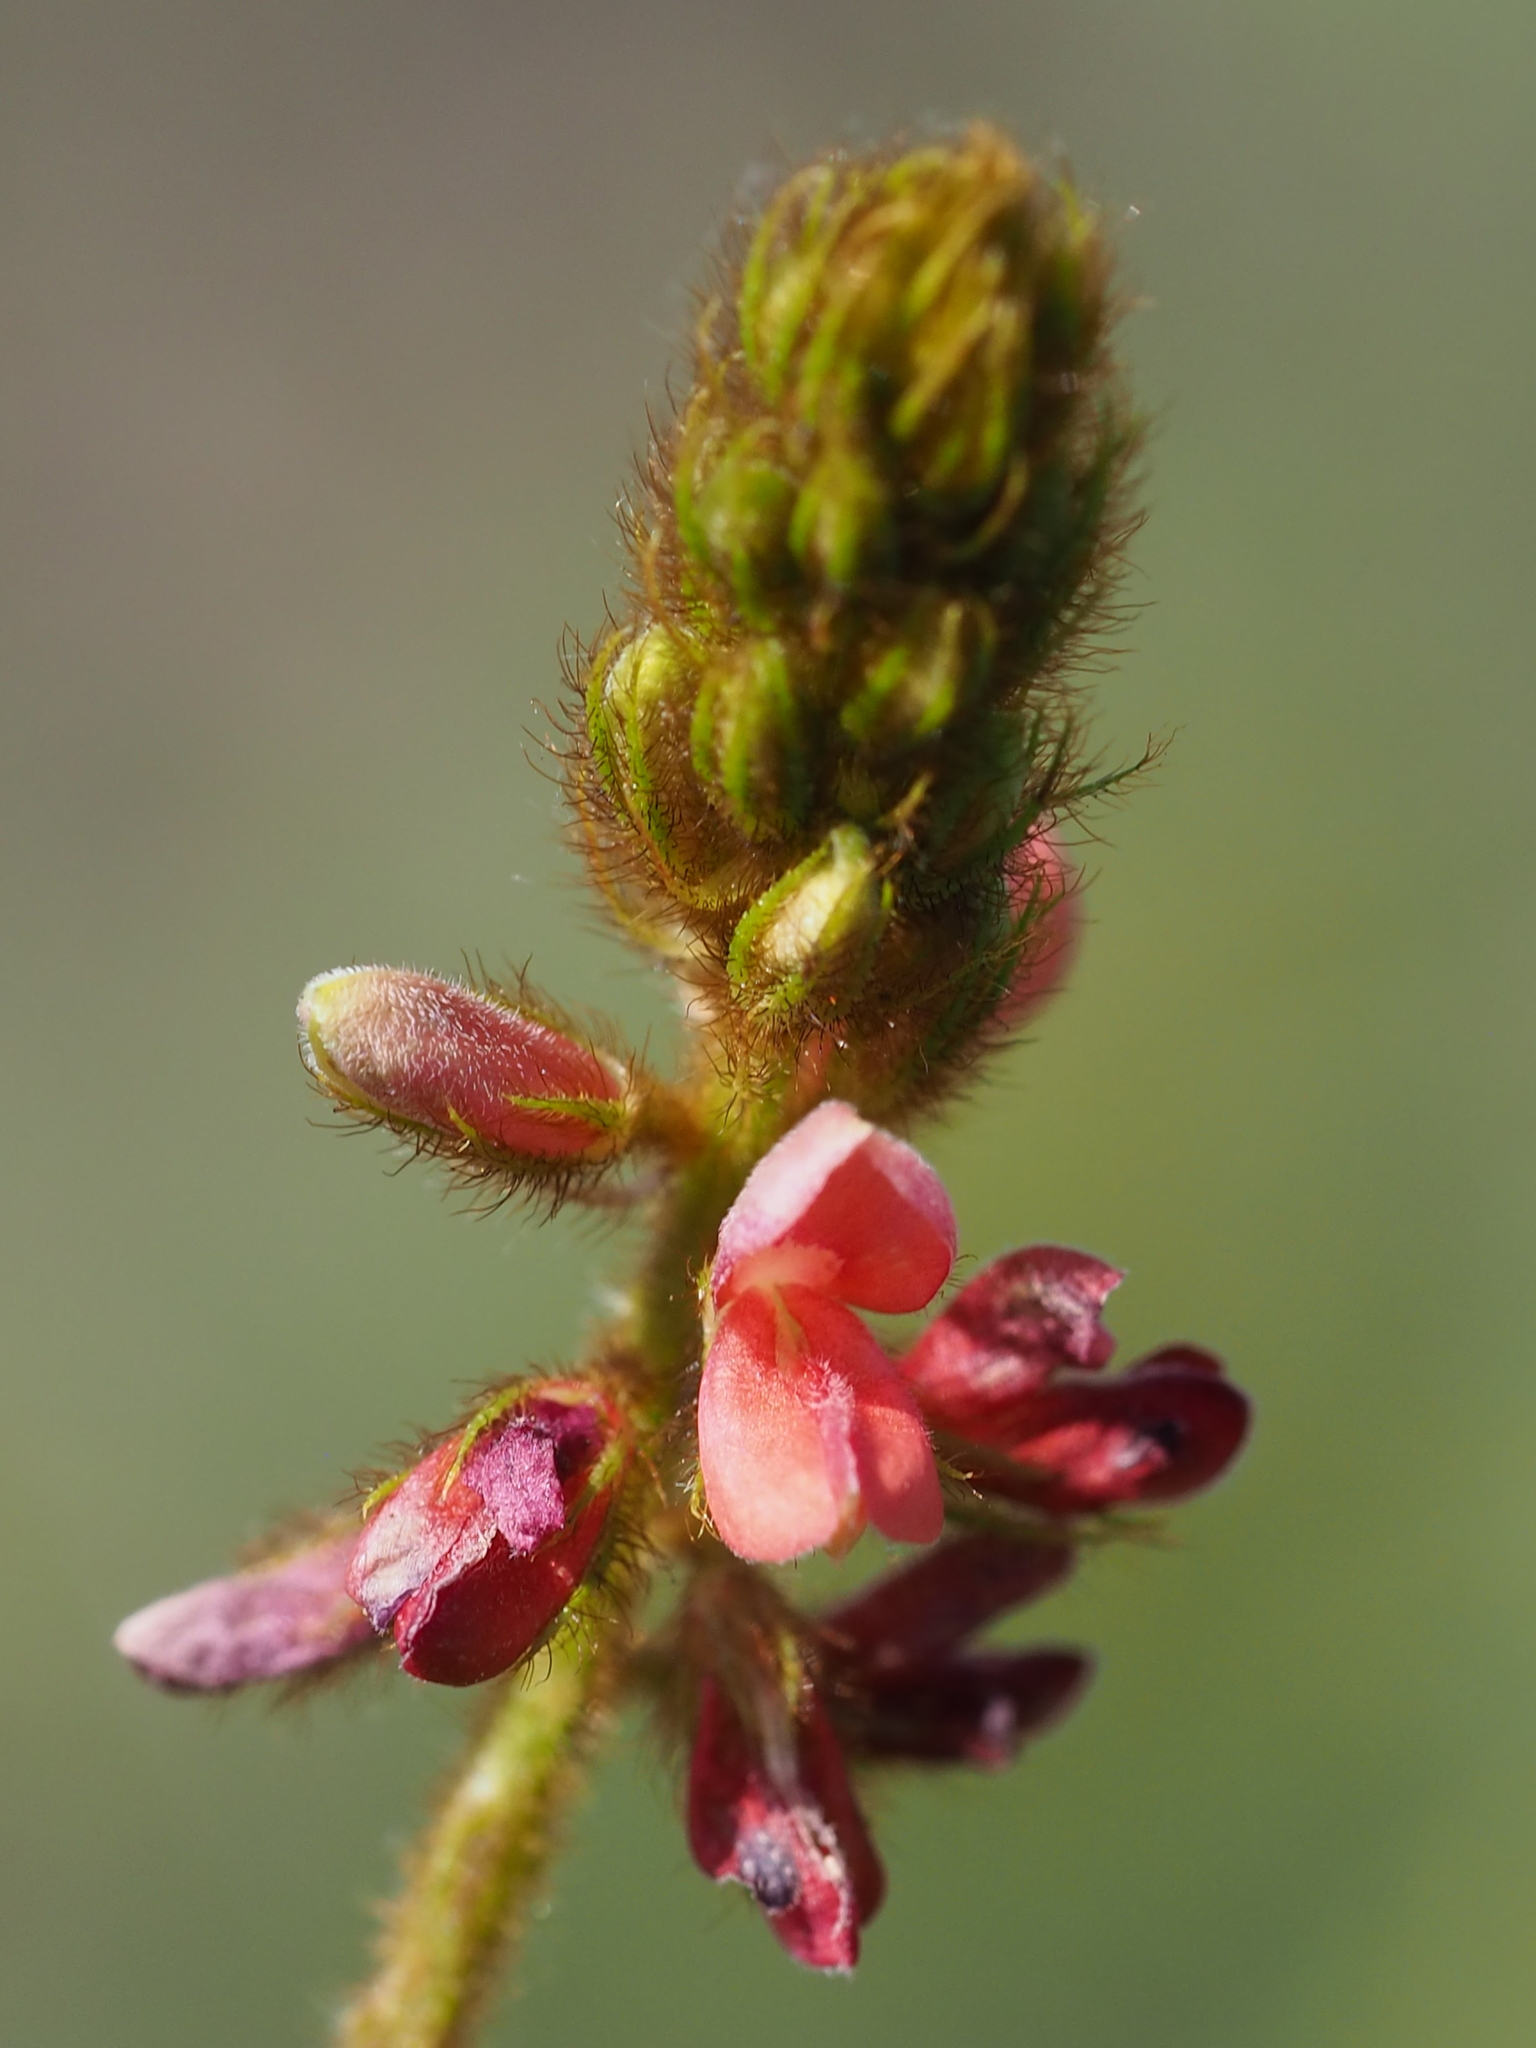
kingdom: Plantae
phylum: Tracheophyta
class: Magnoliopsida
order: Fabales
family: Fabaceae
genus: Indigofera
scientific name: Indigofera hirsuta
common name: Hairy indigo
